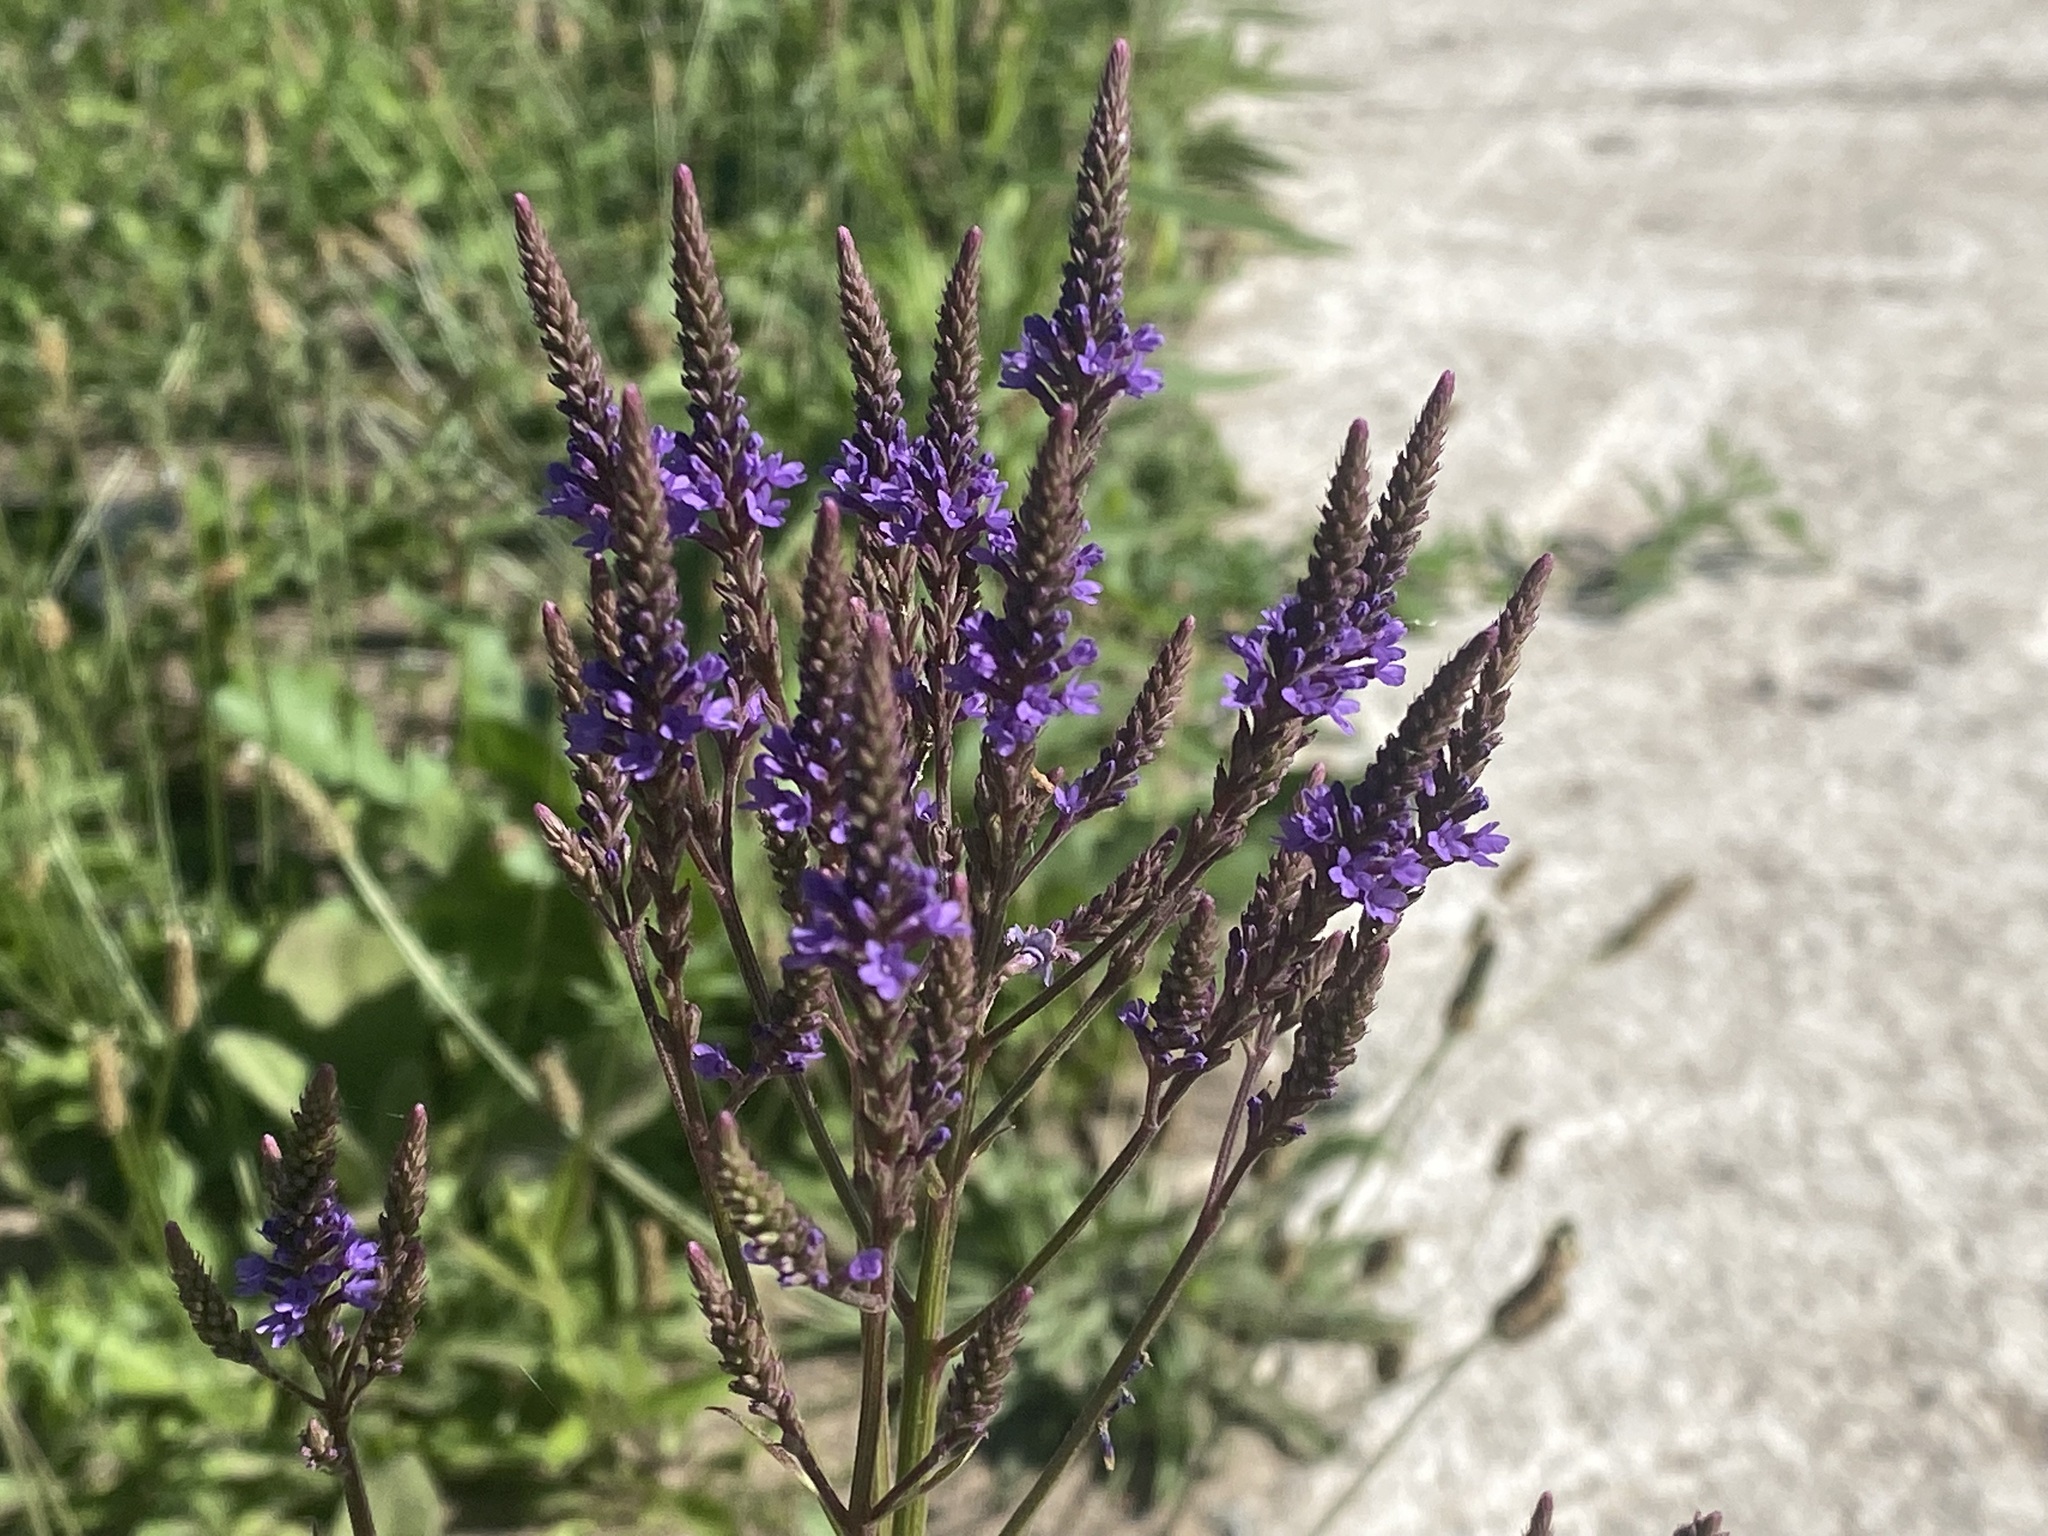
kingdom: Plantae
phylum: Tracheophyta
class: Magnoliopsida
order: Lamiales
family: Verbenaceae
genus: Verbena
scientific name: Verbena hastata
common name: American blue vervain
